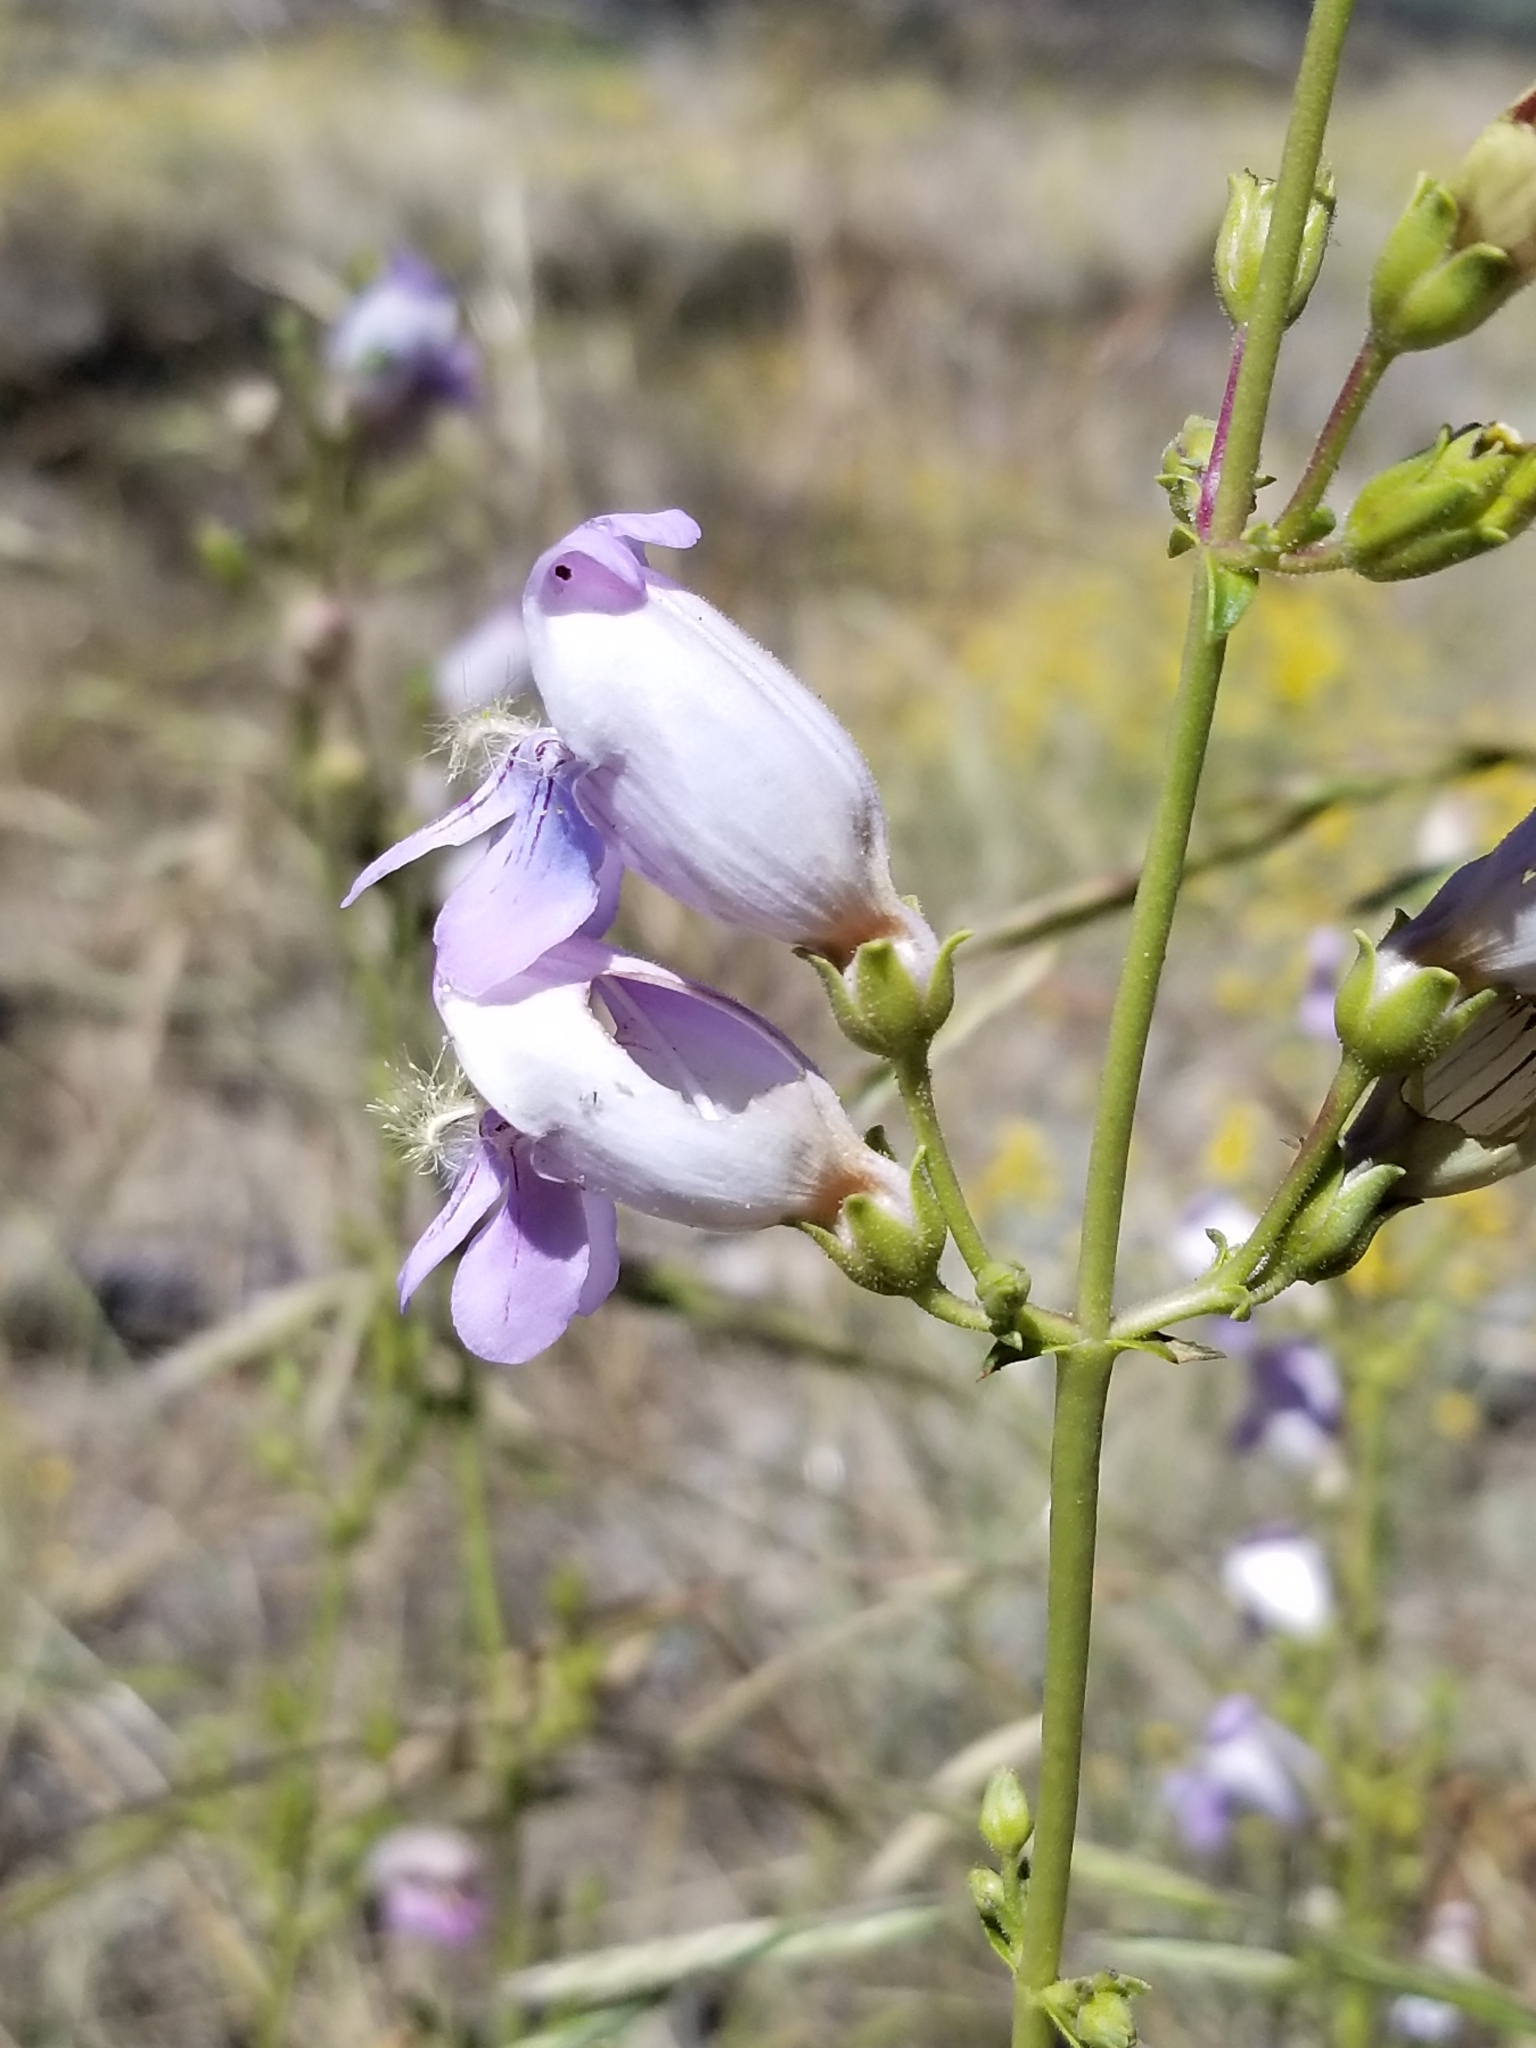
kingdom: Plantae
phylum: Tracheophyta
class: Magnoliopsida
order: Lamiales
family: Plantaginaceae
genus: Penstemon
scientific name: Penstemon grinnellii
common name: Grinnell's beardtongue
